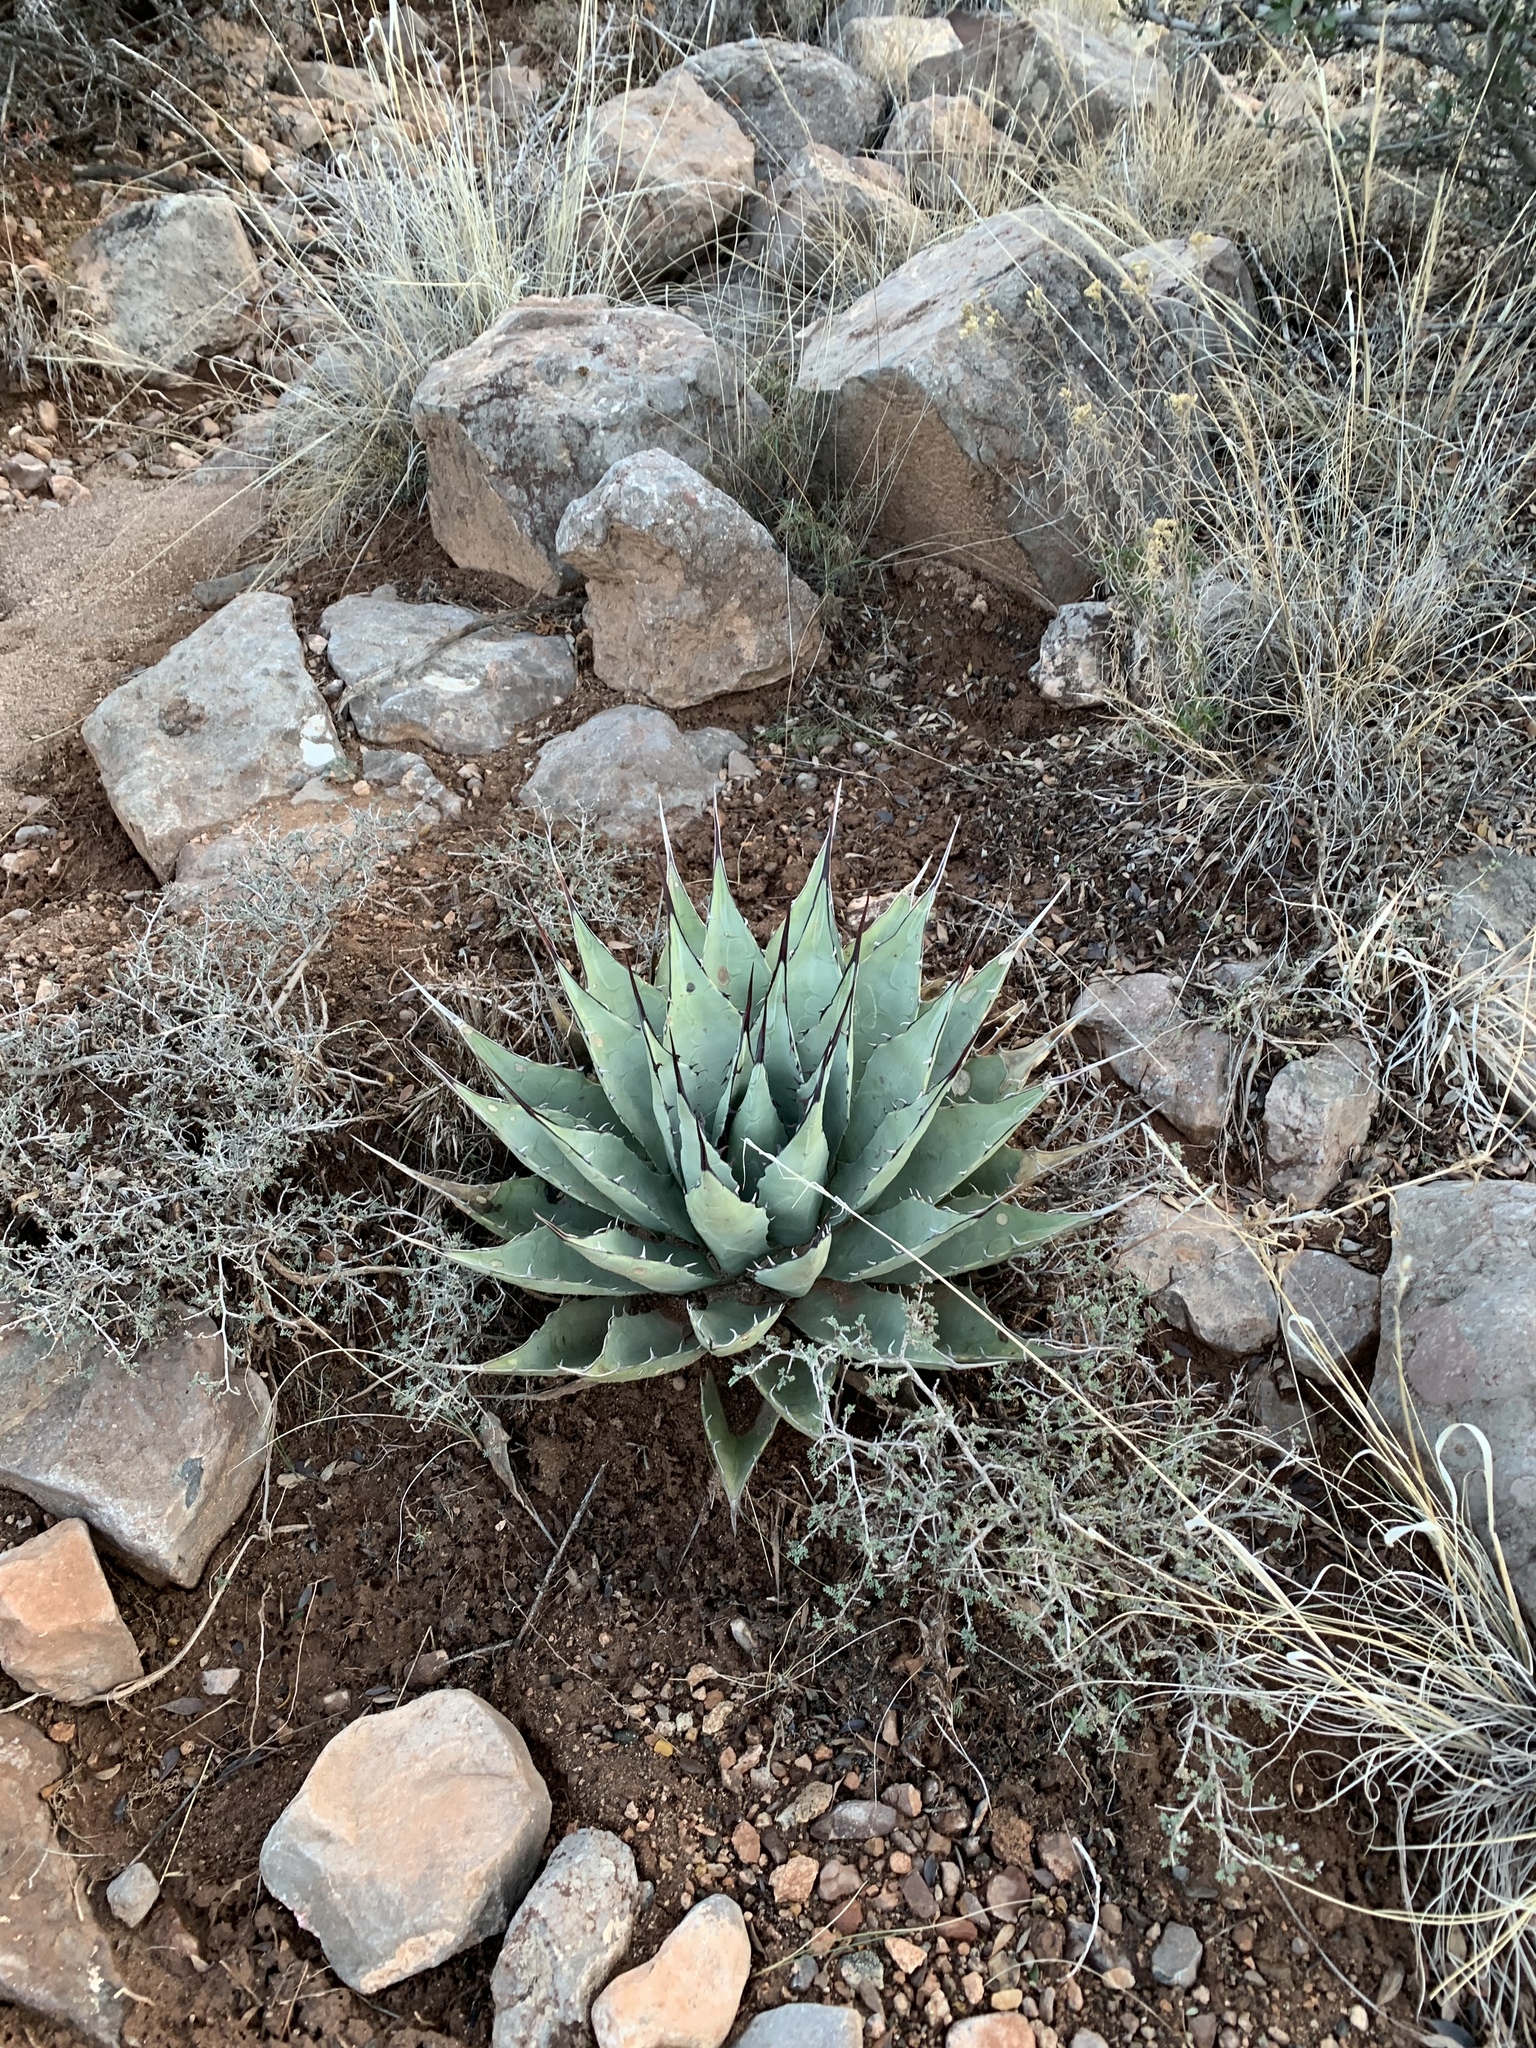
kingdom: Plantae
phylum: Tracheophyta
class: Liliopsida
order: Asparagales
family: Asparagaceae
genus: Agave
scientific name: Agave parryi
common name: Parry's agave
